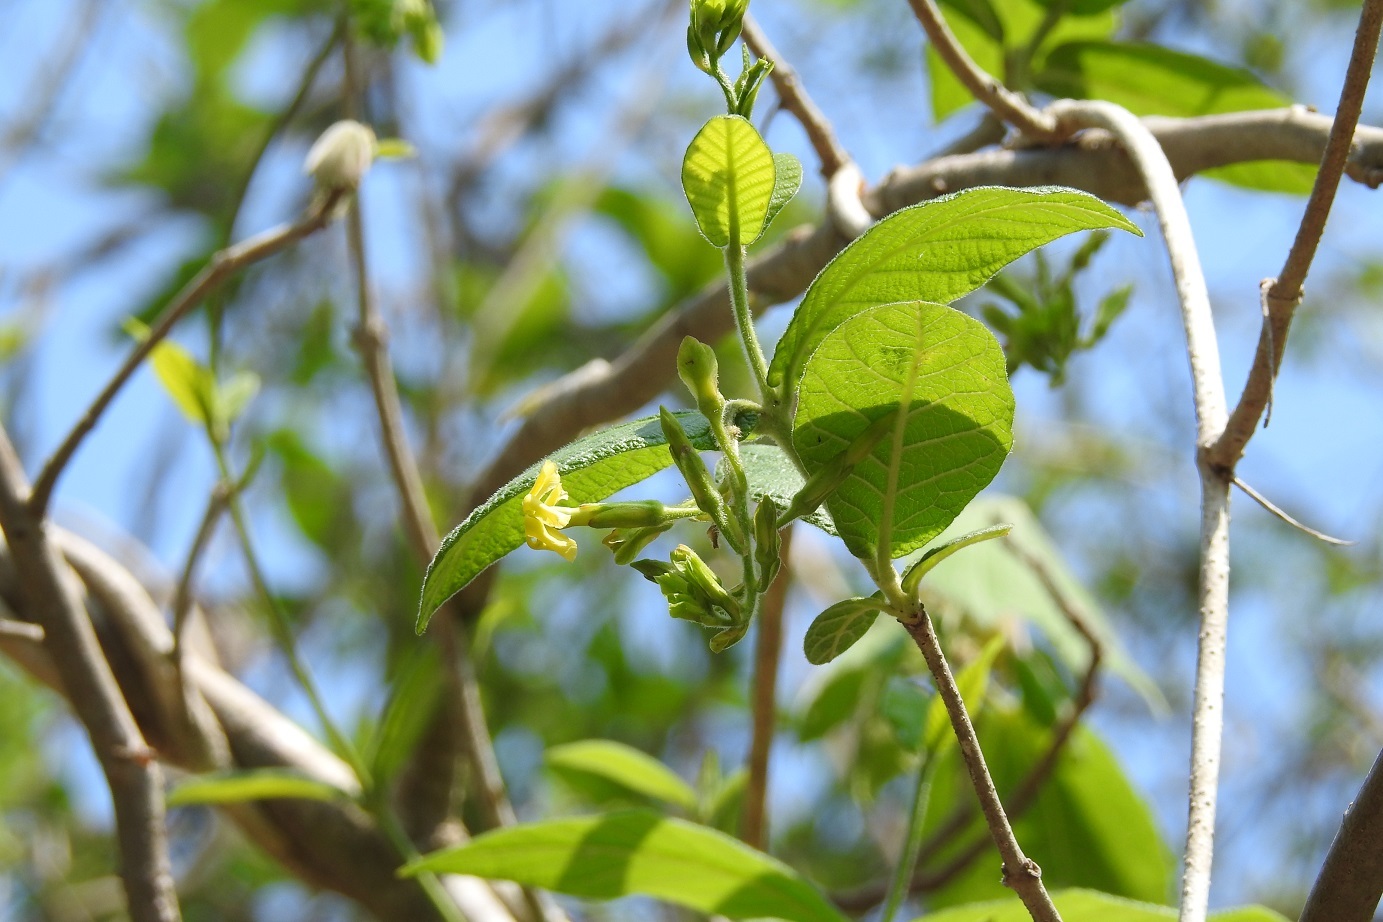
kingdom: Plantae
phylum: Tracheophyta
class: Magnoliopsida
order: Gentianales
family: Apocynaceae
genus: Mandevilla
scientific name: Mandevilla subsessilis
